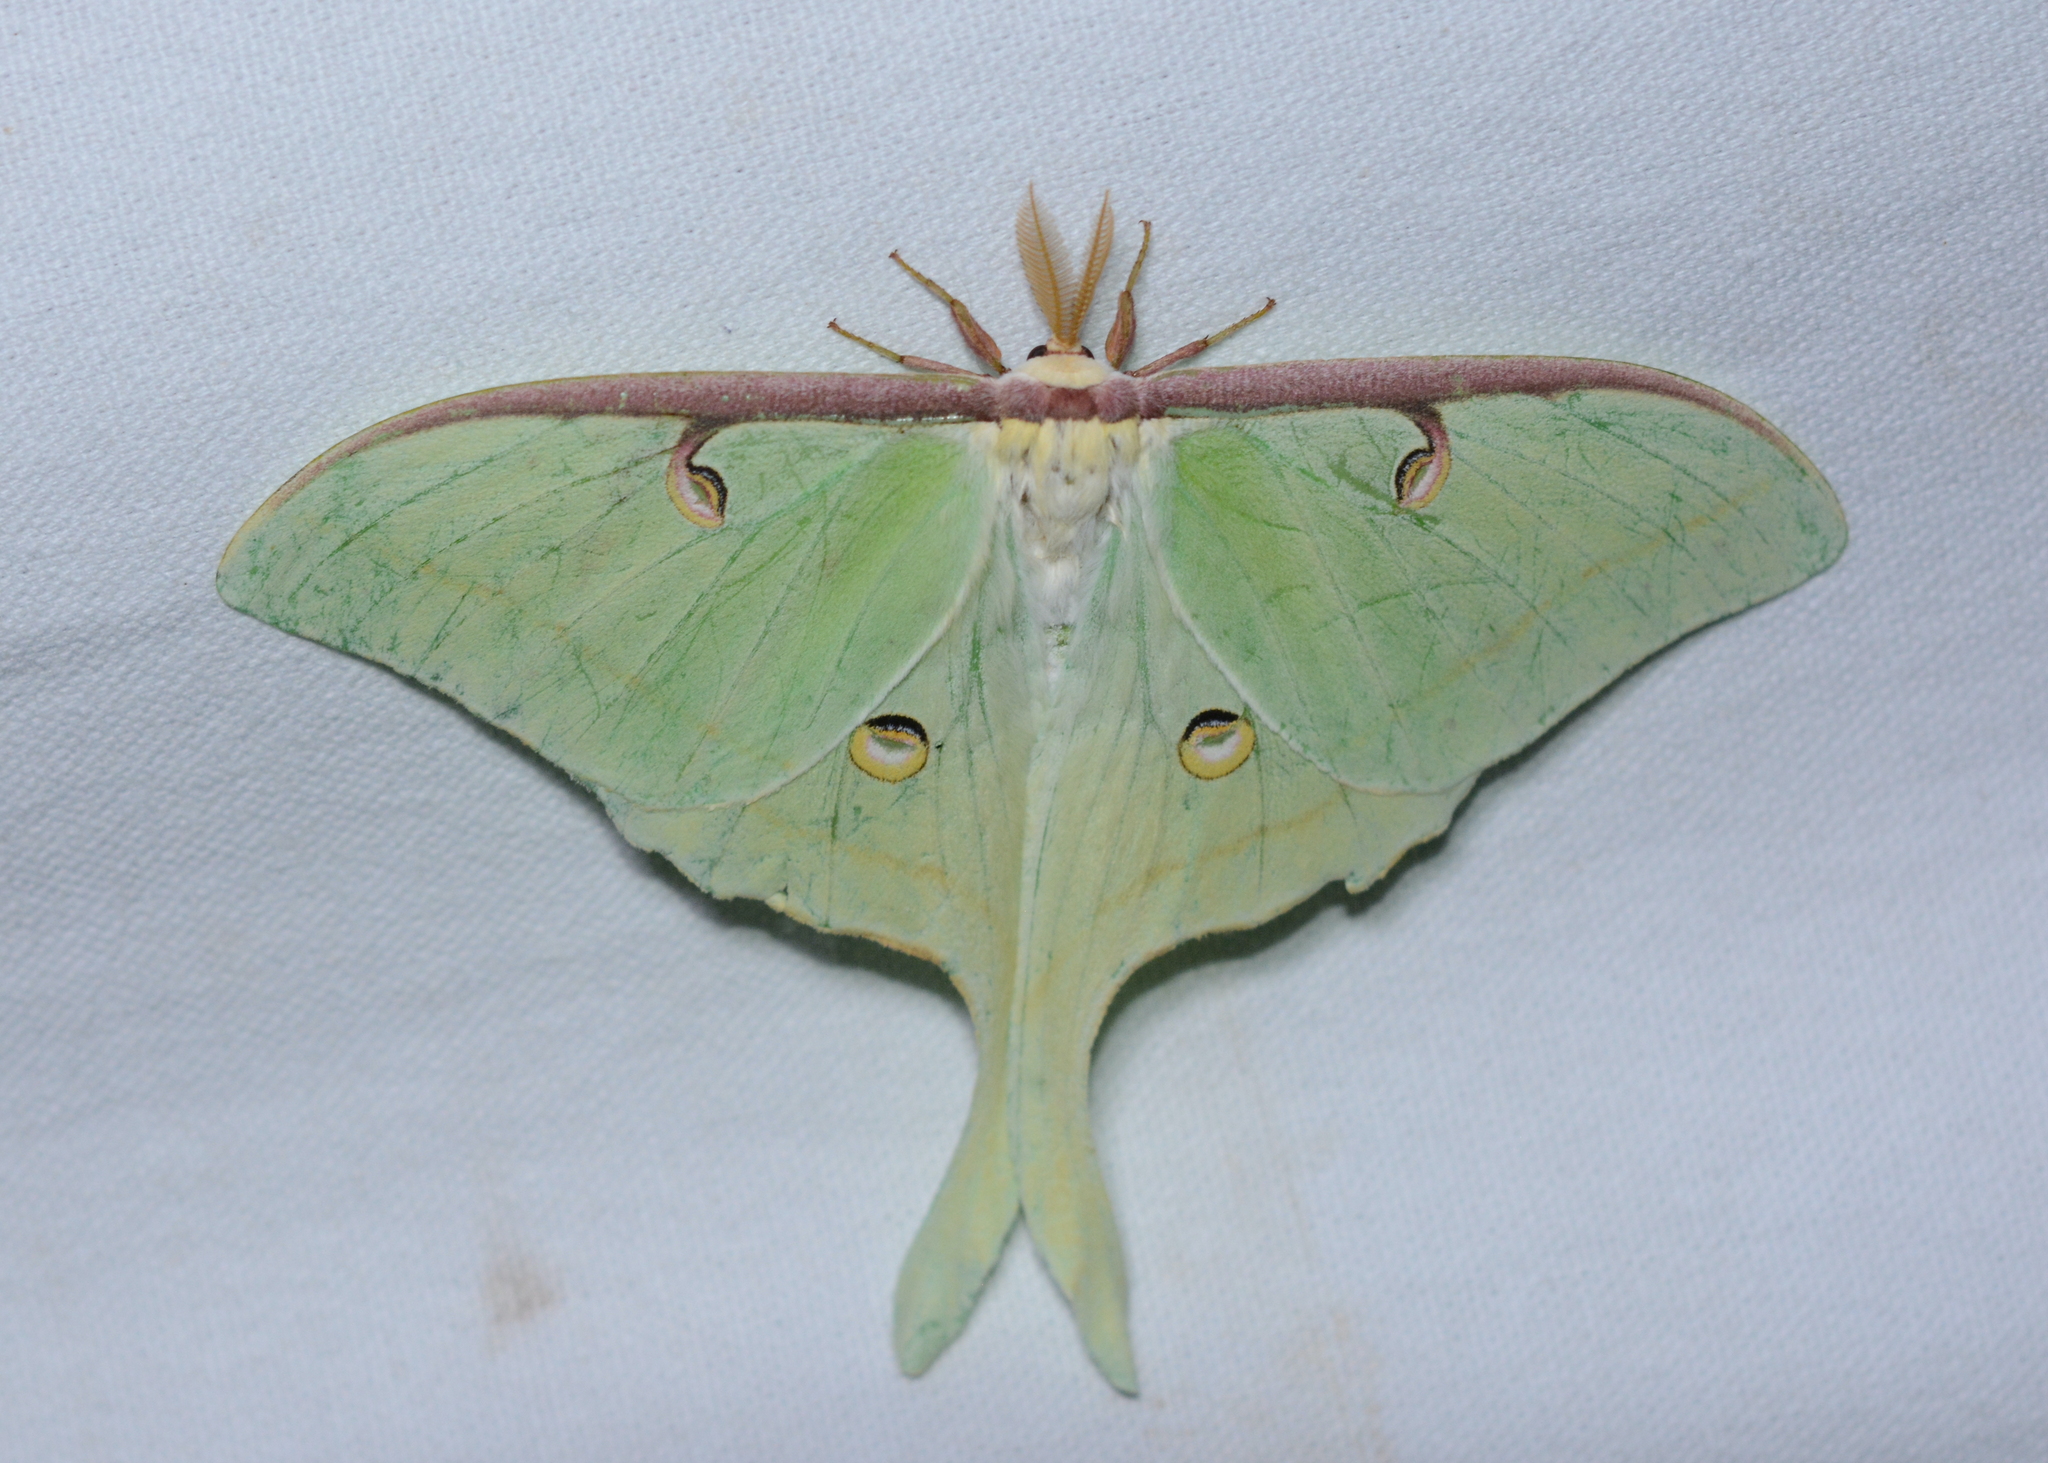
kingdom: Animalia
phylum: Arthropoda
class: Insecta
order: Lepidoptera
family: Saturniidae
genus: Actias
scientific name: Actias luna
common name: Luna moth
